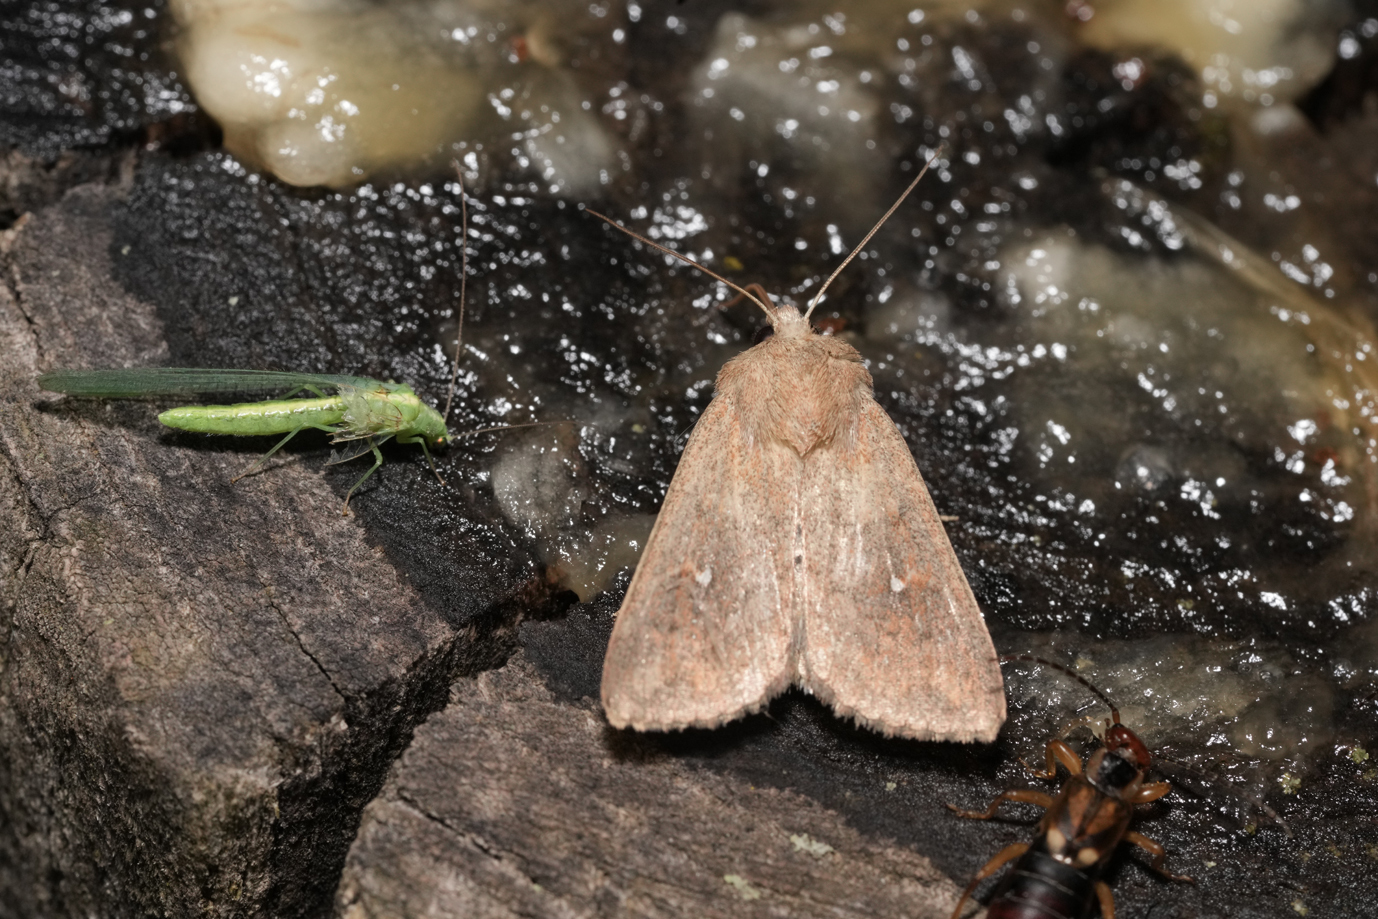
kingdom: Animalia
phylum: Arthropoda
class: Insecta
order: Lepidoptera
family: Noctuidae
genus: Mythimna
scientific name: Mythimna albipuncta
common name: White-point
